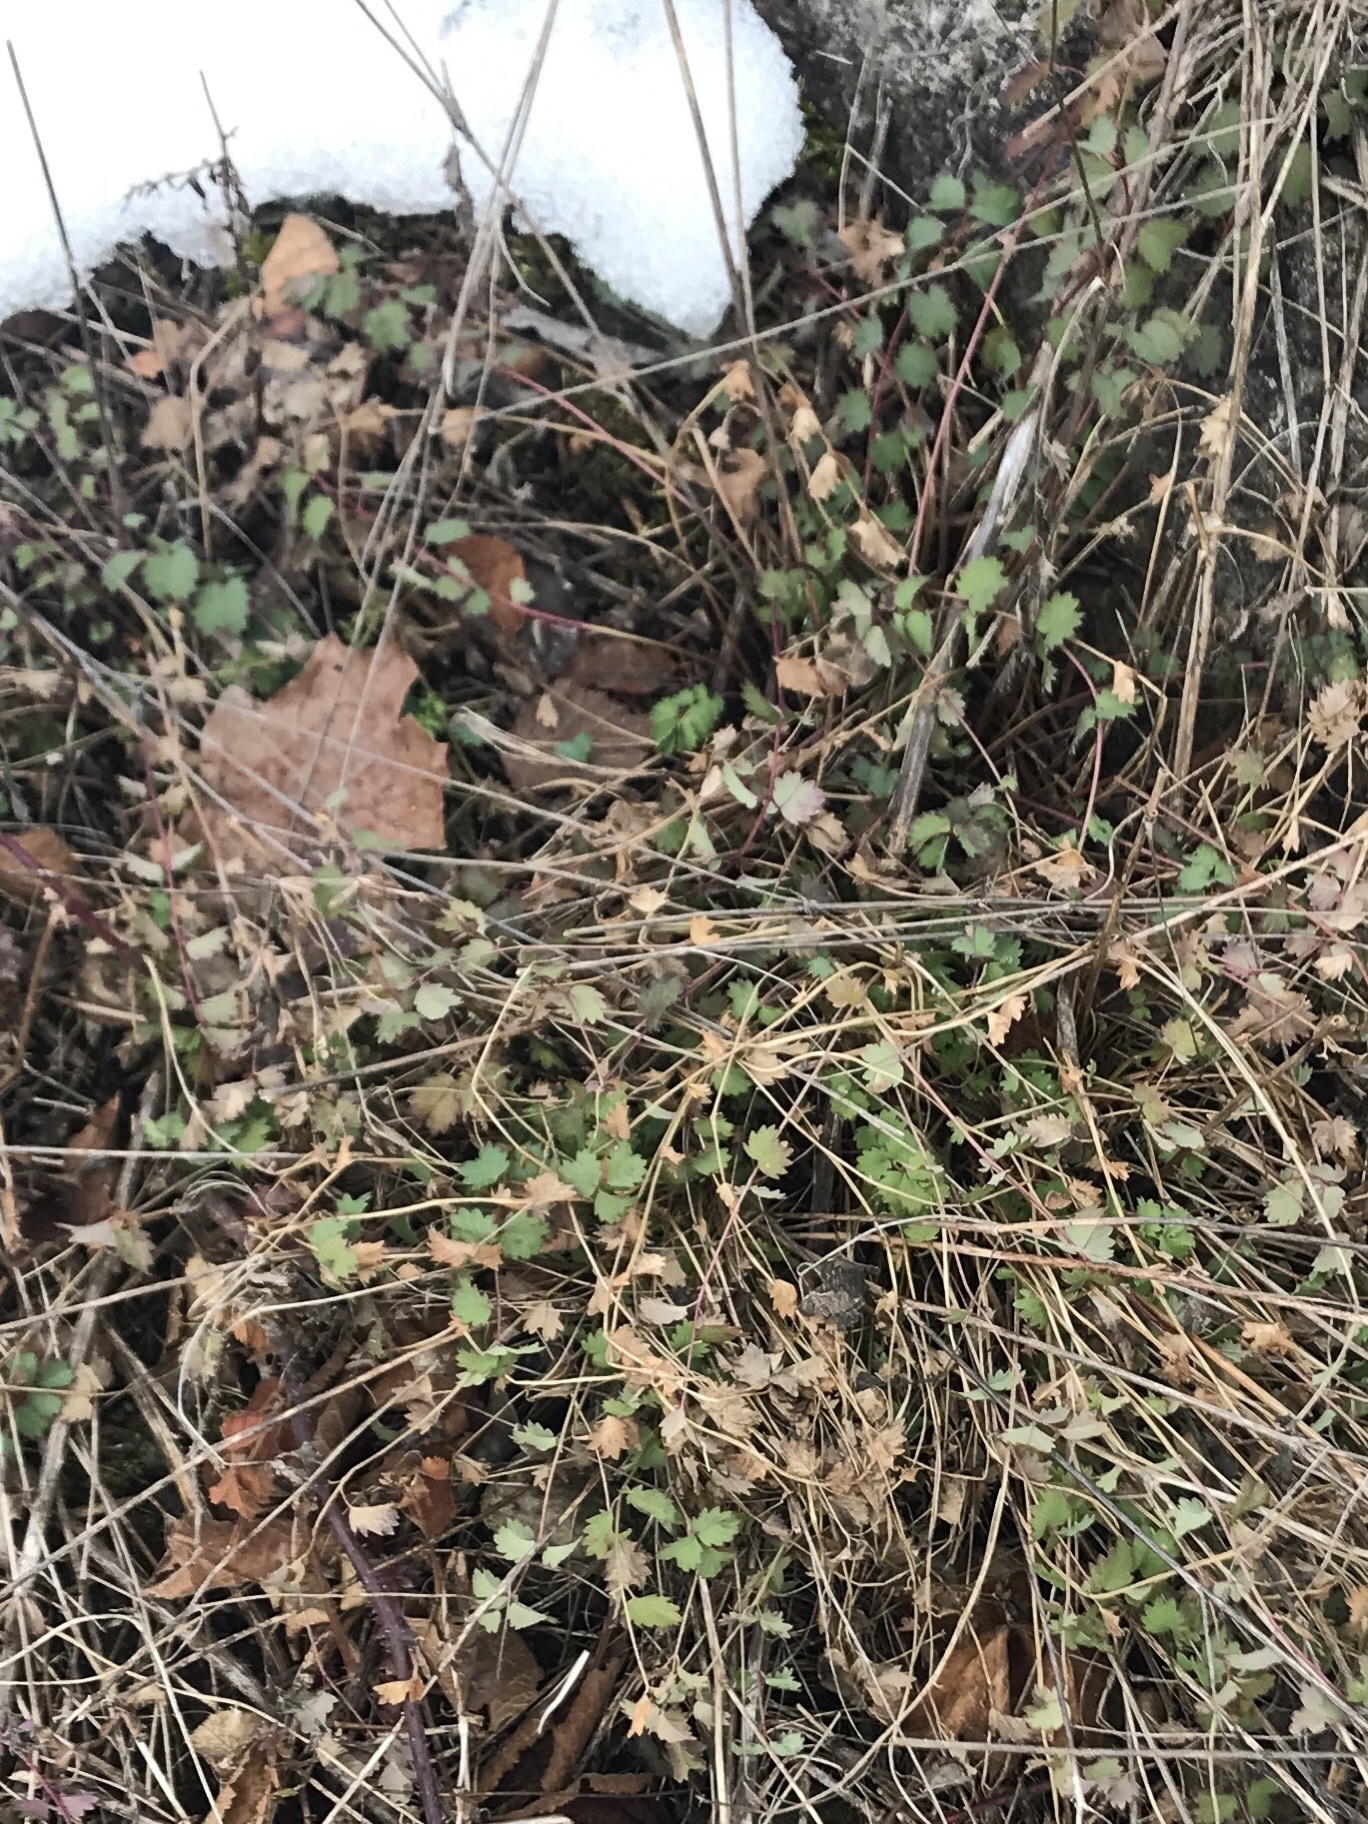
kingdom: Plantae
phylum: Tracheophyta
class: Magnoliopsida
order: Rosales
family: Rosaceae
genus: Poterium
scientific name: Poterium sanguisorba
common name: Salad burnet
